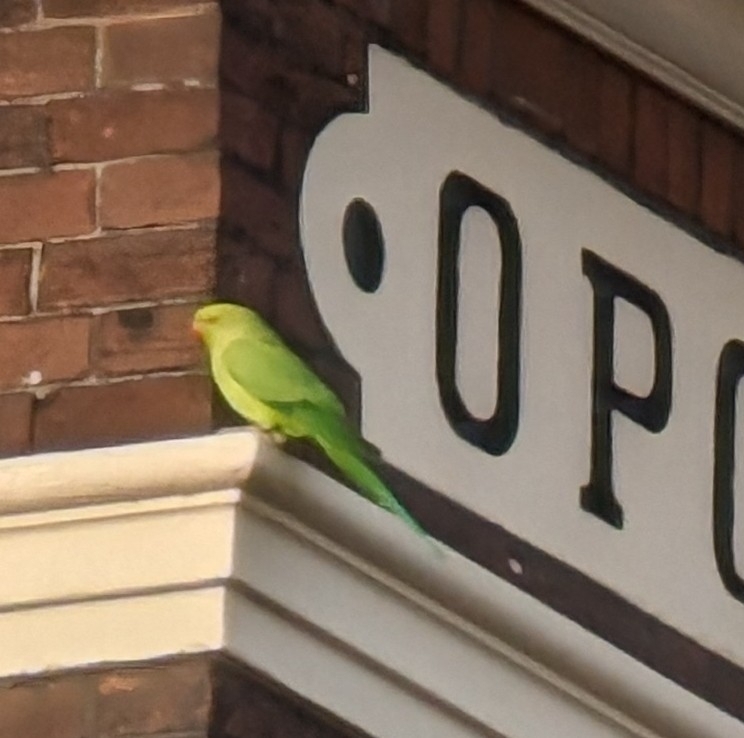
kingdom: Animalia
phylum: Chordata
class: Aves
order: Psittaciformes
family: Psittacidae
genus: Psittacula
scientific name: Psittacula krameri
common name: Rose-ringed parakeet
